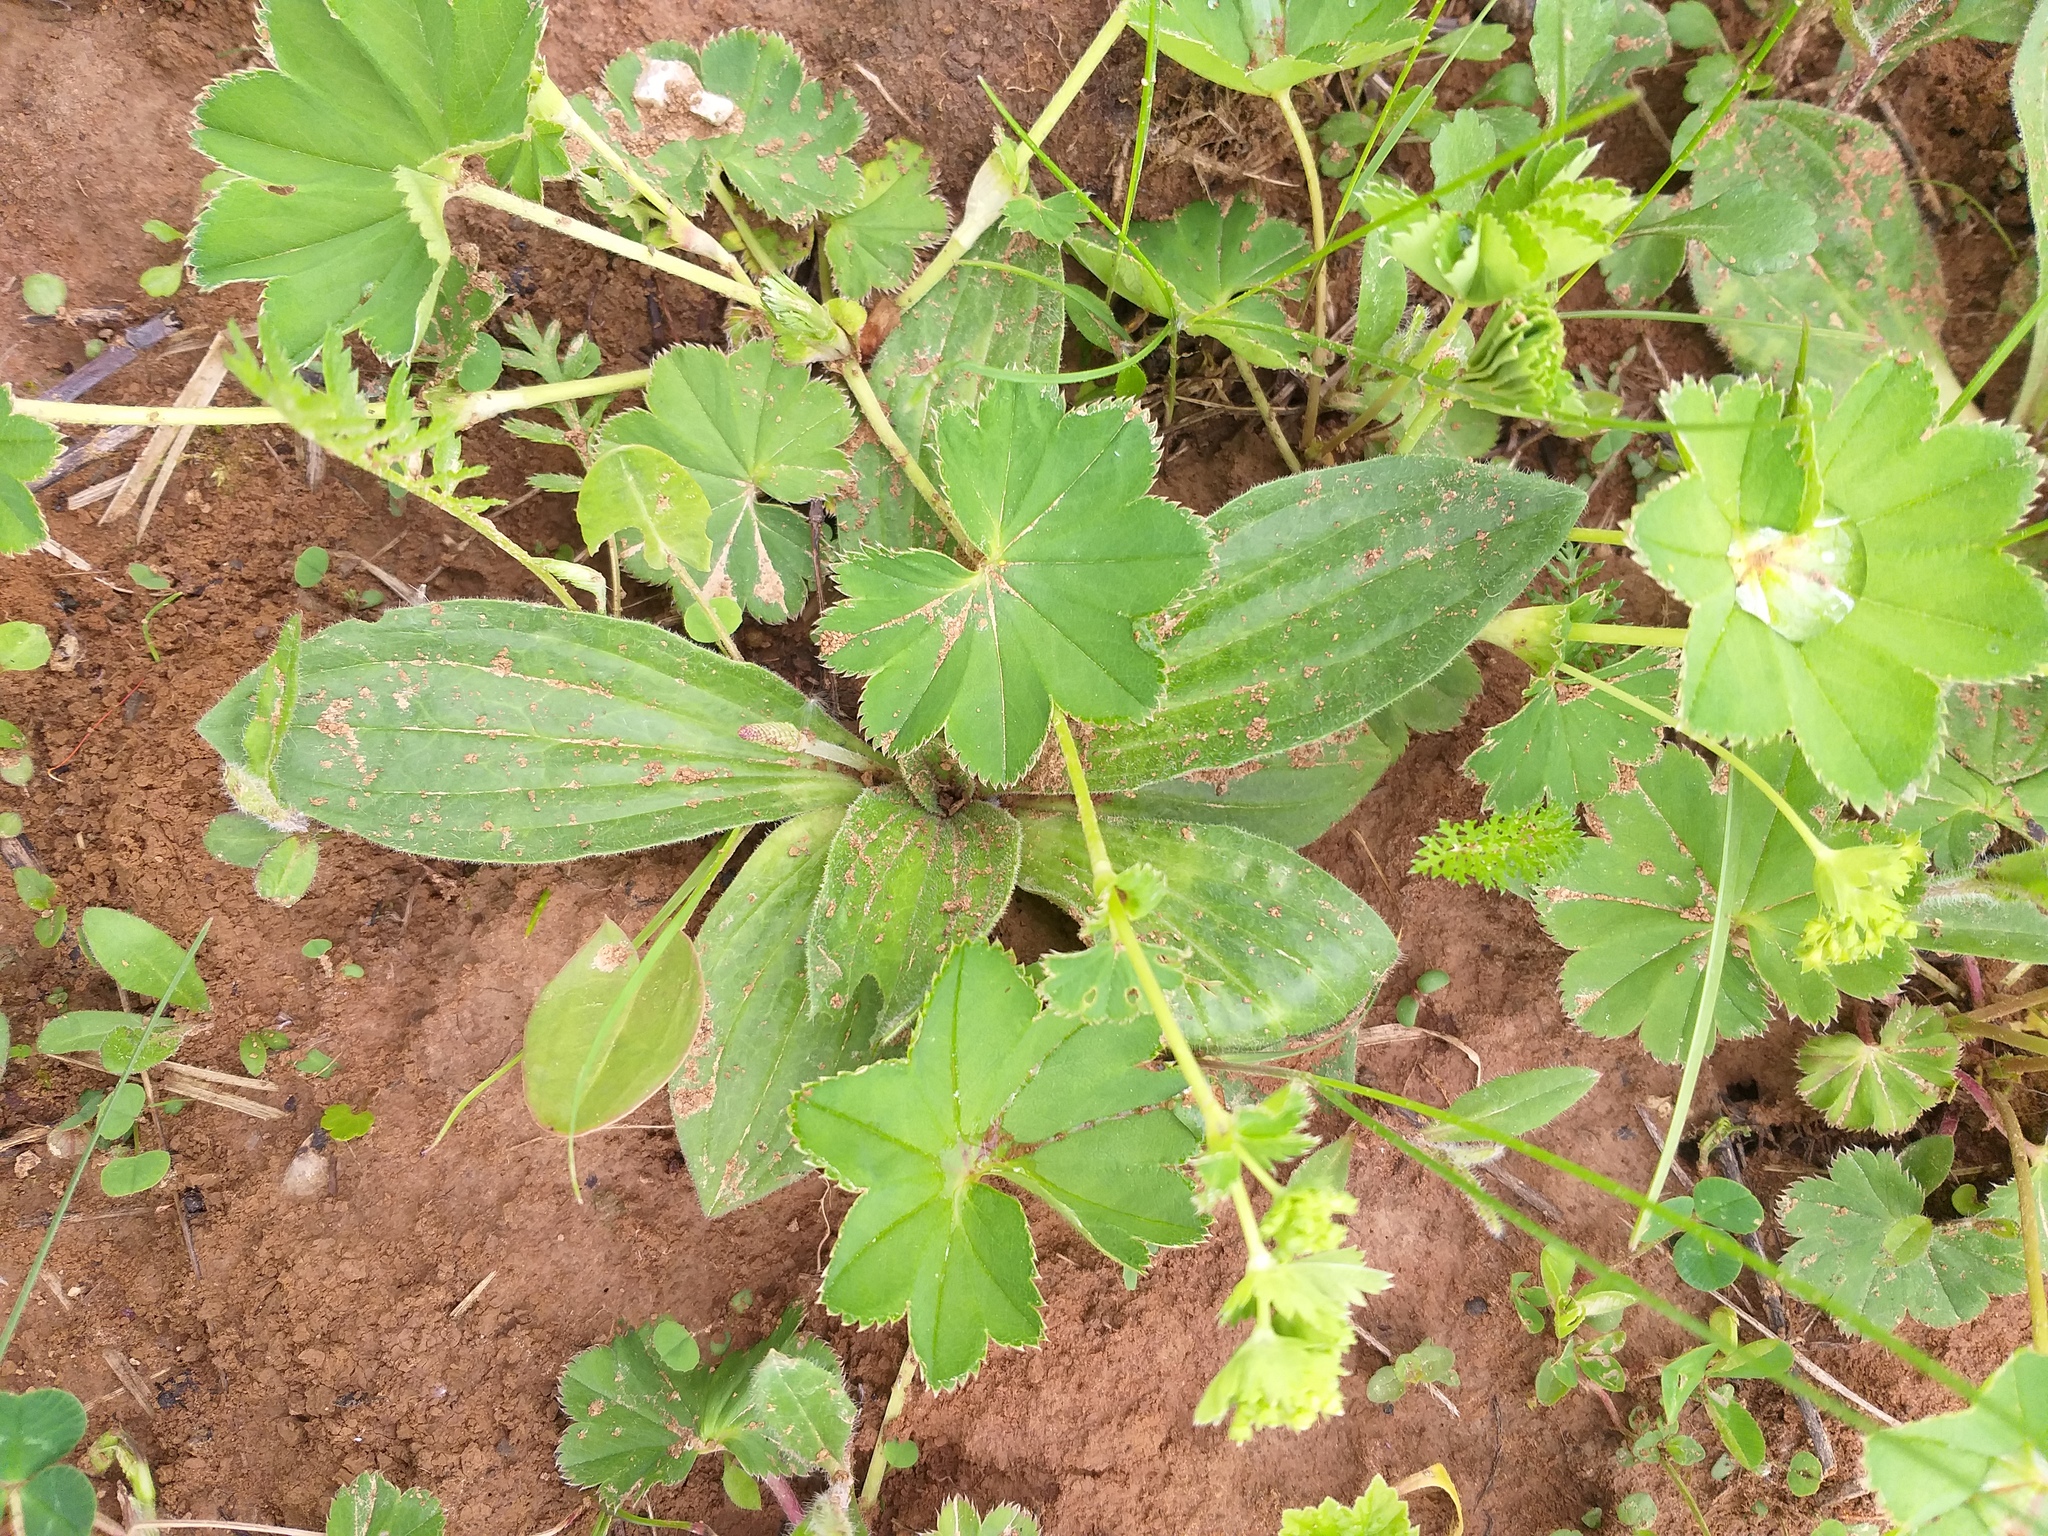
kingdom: Plantae
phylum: Tracheophyta
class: Magnoliopsida
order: Lamiales
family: Plantaginaceae
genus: Plantago
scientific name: Plantago media
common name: Hoary plantain
